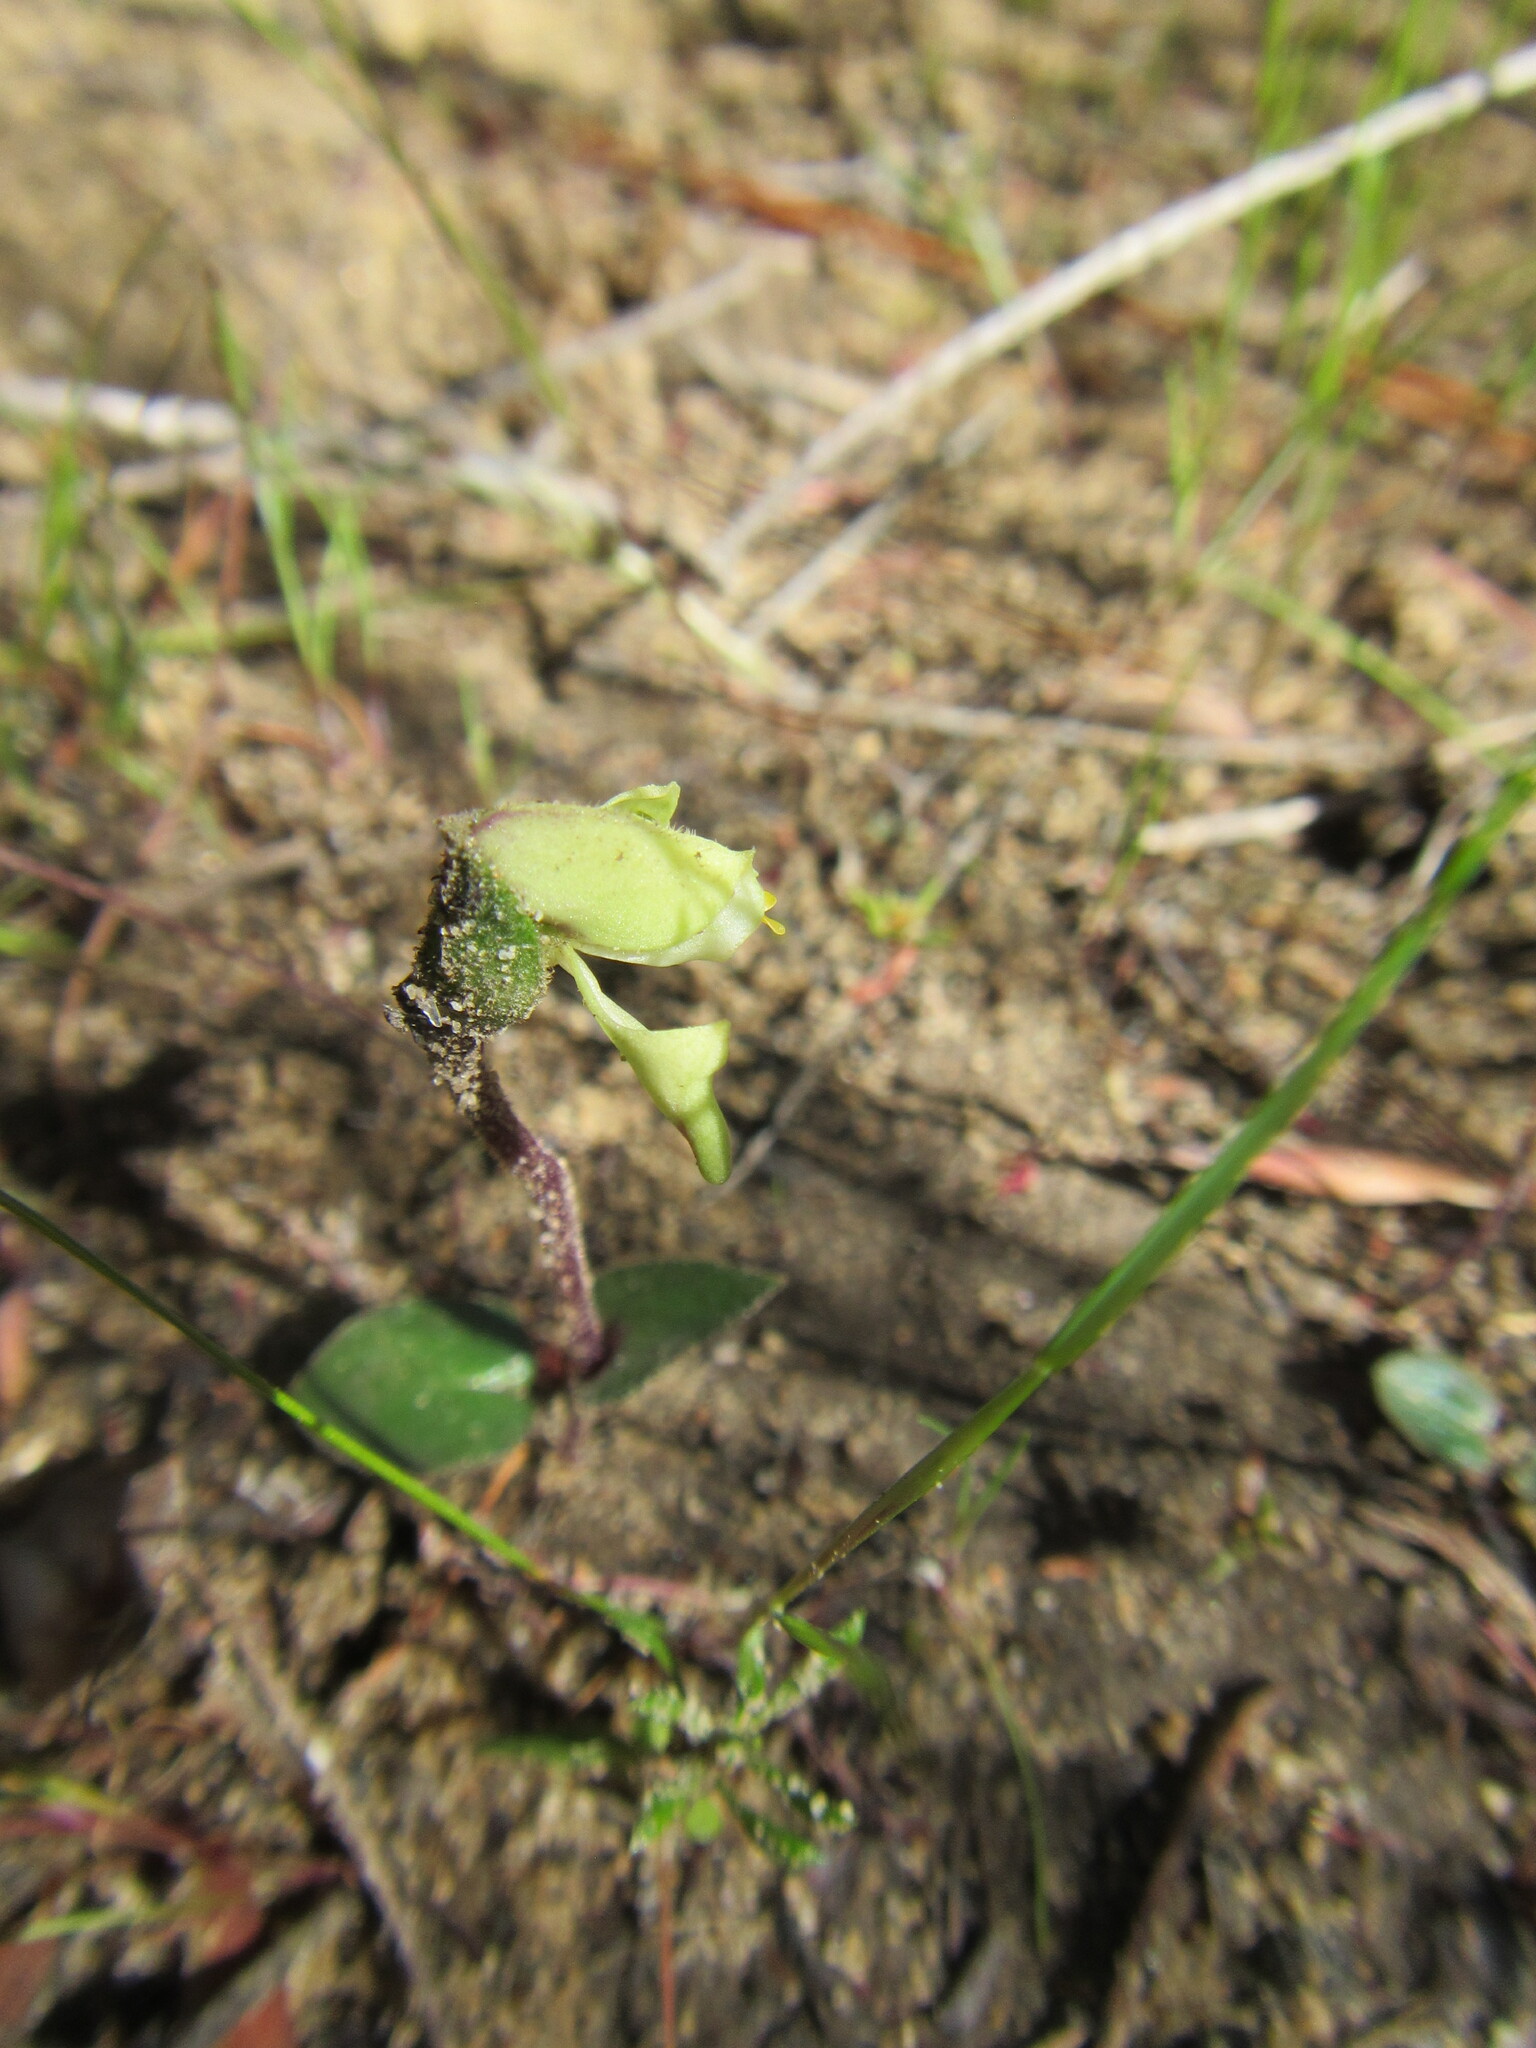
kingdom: Plantae
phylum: Tracheophyta
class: Liliopsida
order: Asparagales
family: Orchidaceae
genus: Disperis
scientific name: Disperis villosa
